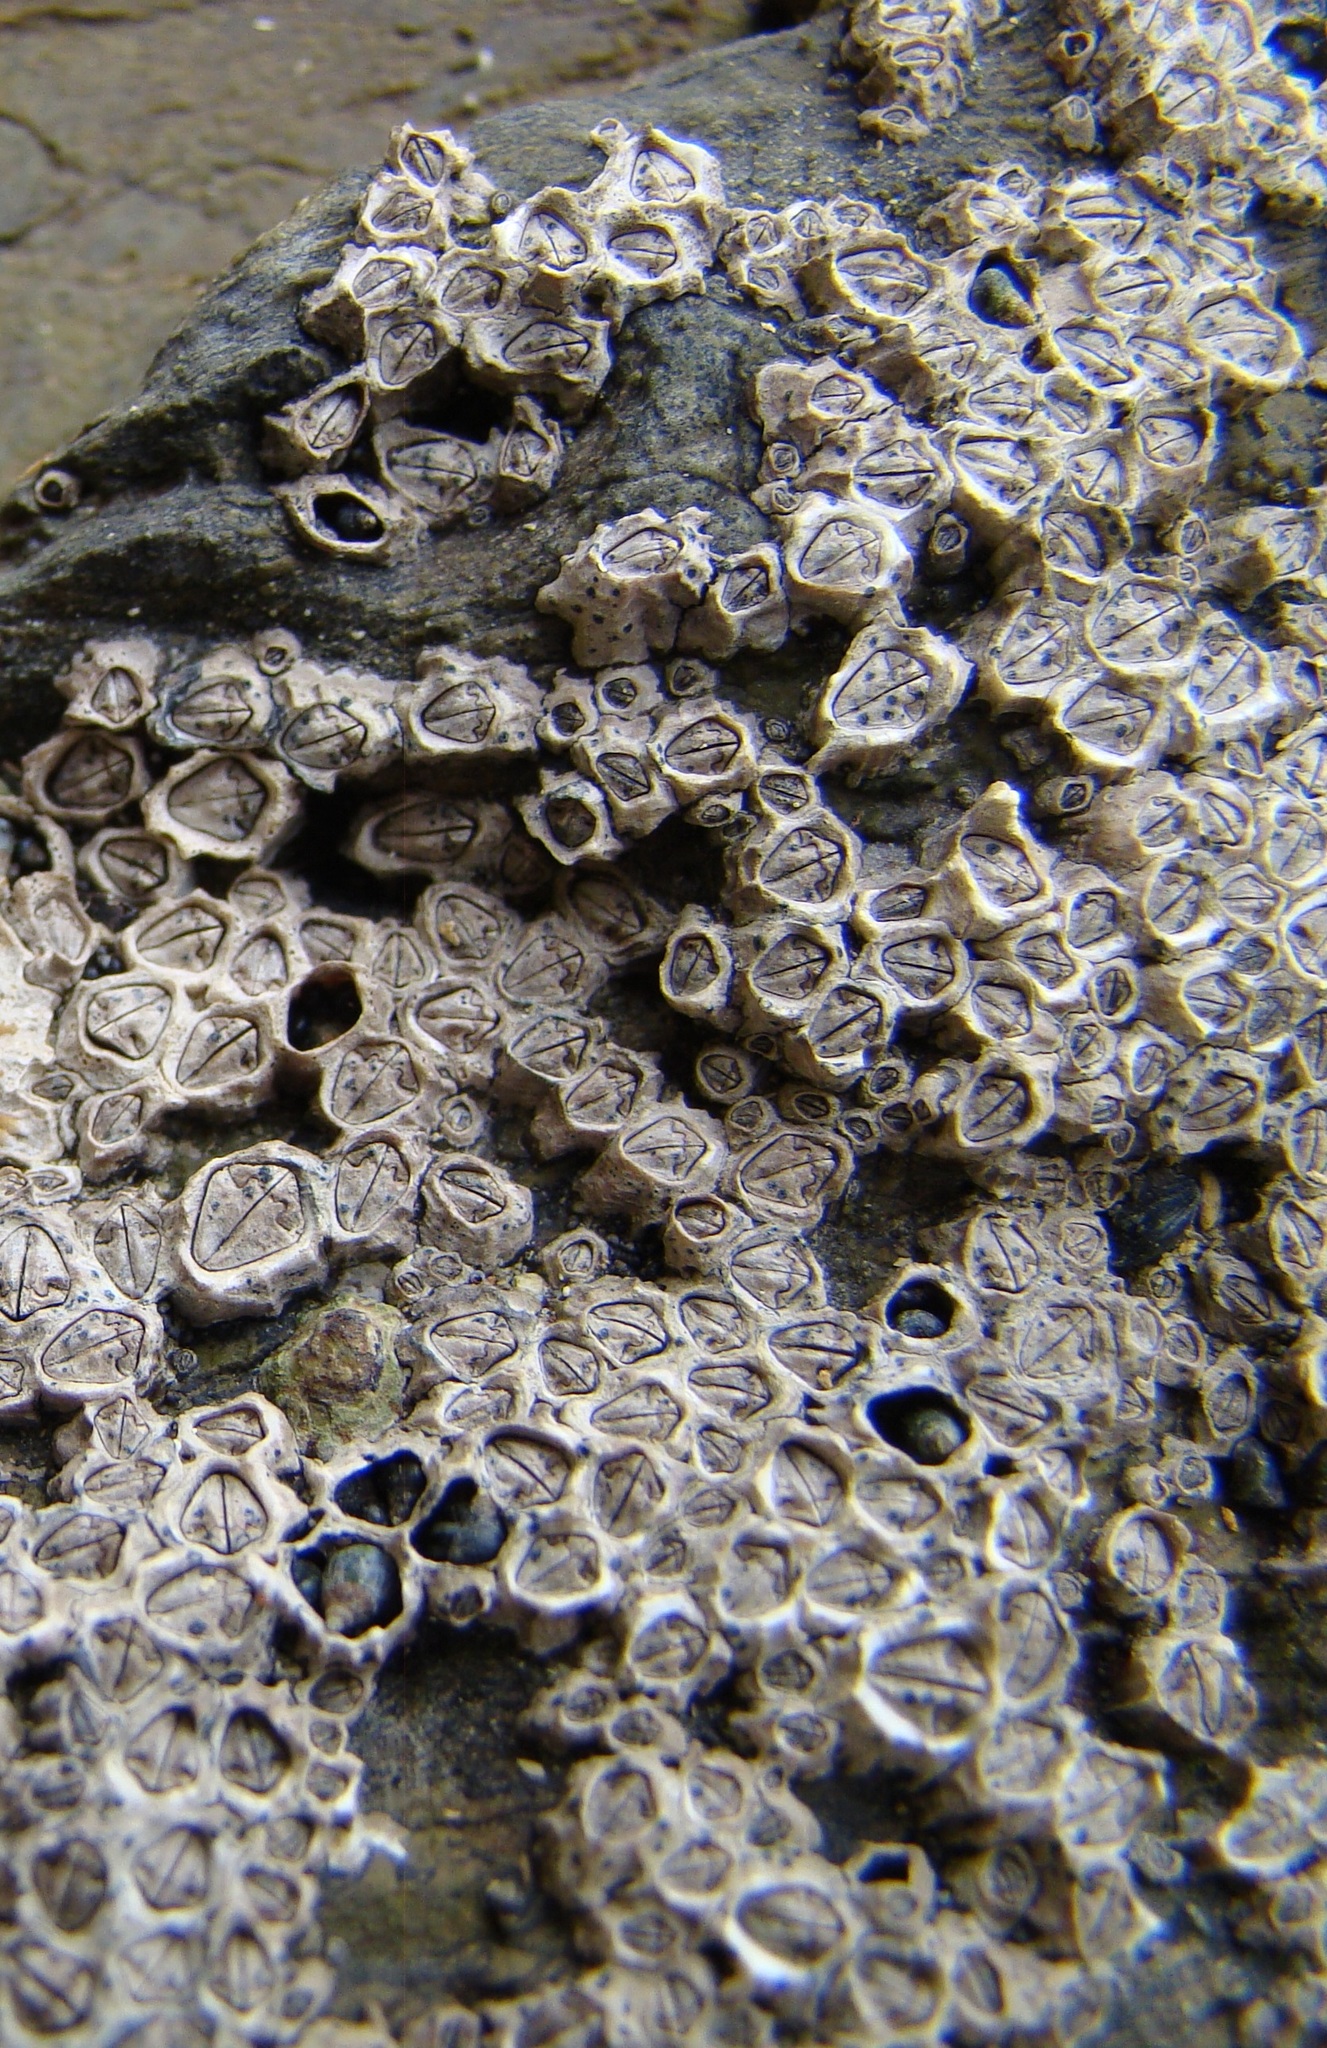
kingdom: Animalia
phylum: Arthropoda
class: Maxillopoda
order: Sessilia
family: Chthamalidae
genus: Chamaesipho
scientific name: Chamaesipho columna
